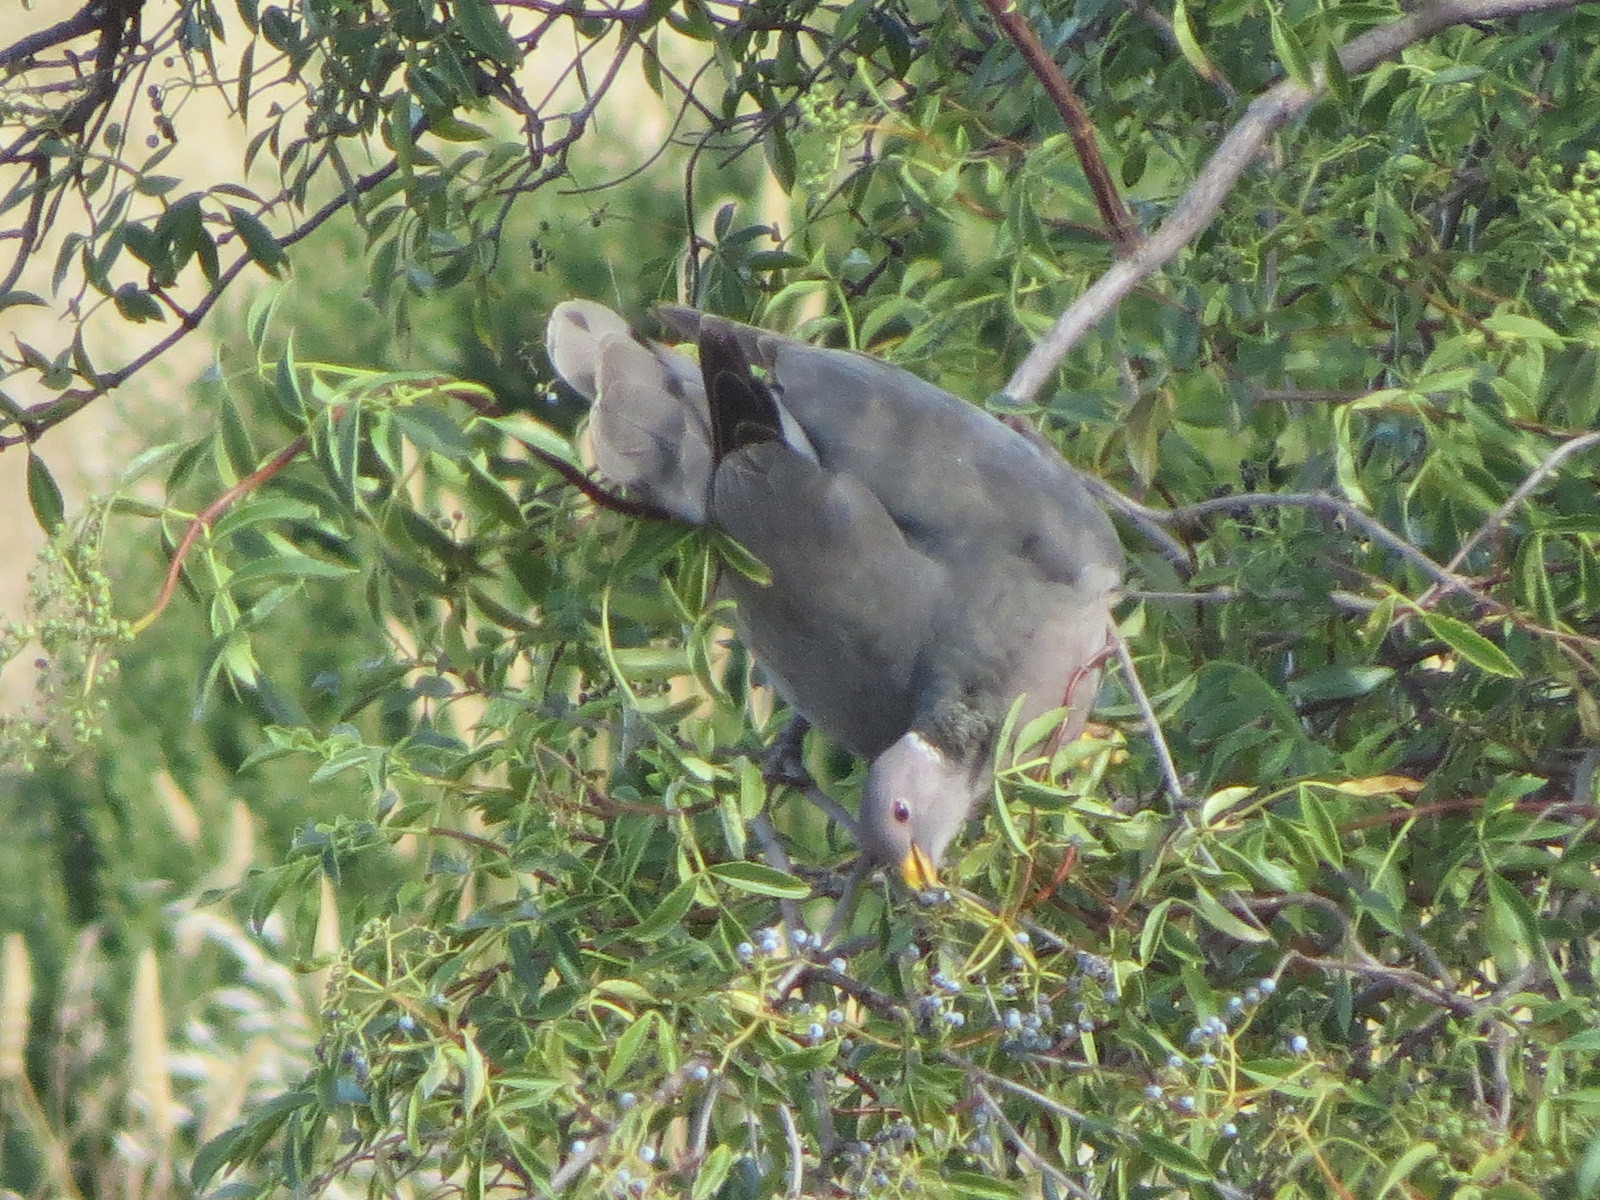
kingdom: Animalia
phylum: Chordata
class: Aves
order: Columbiformes
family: Columbidae
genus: Patagioenas
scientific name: Patagioenas fasciata
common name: Band-tailed pigeon
